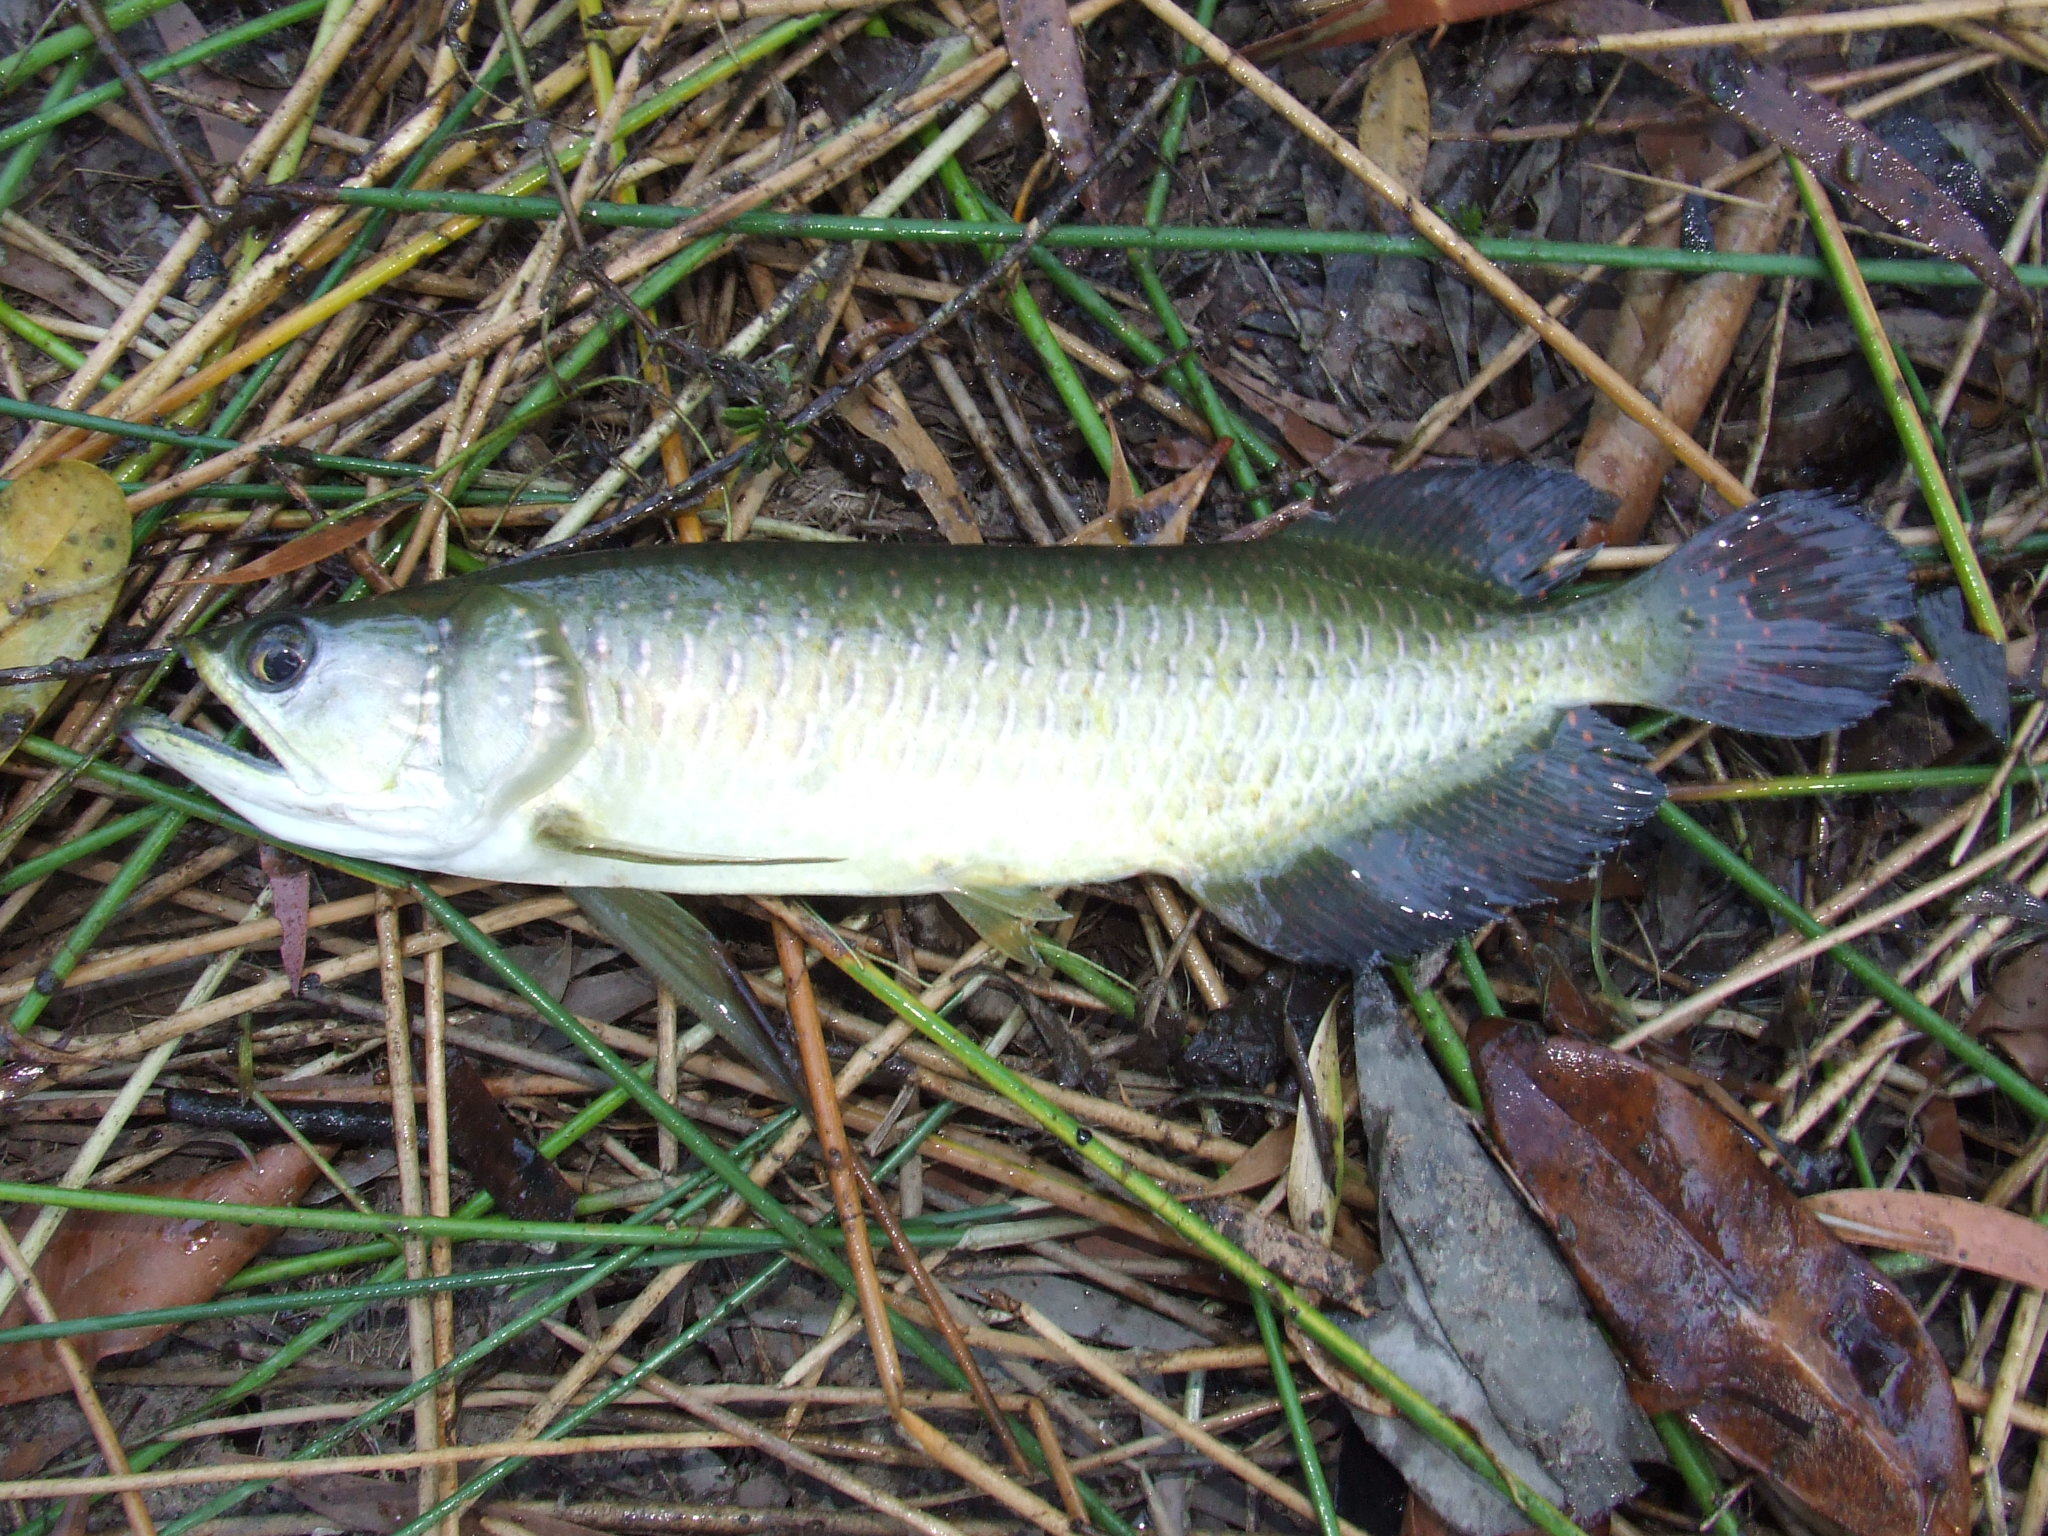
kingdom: Animalia
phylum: Chordata
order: Osteoglossiformes
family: Osteoglossidae
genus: Scleropages
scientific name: Scleropages jardinii
